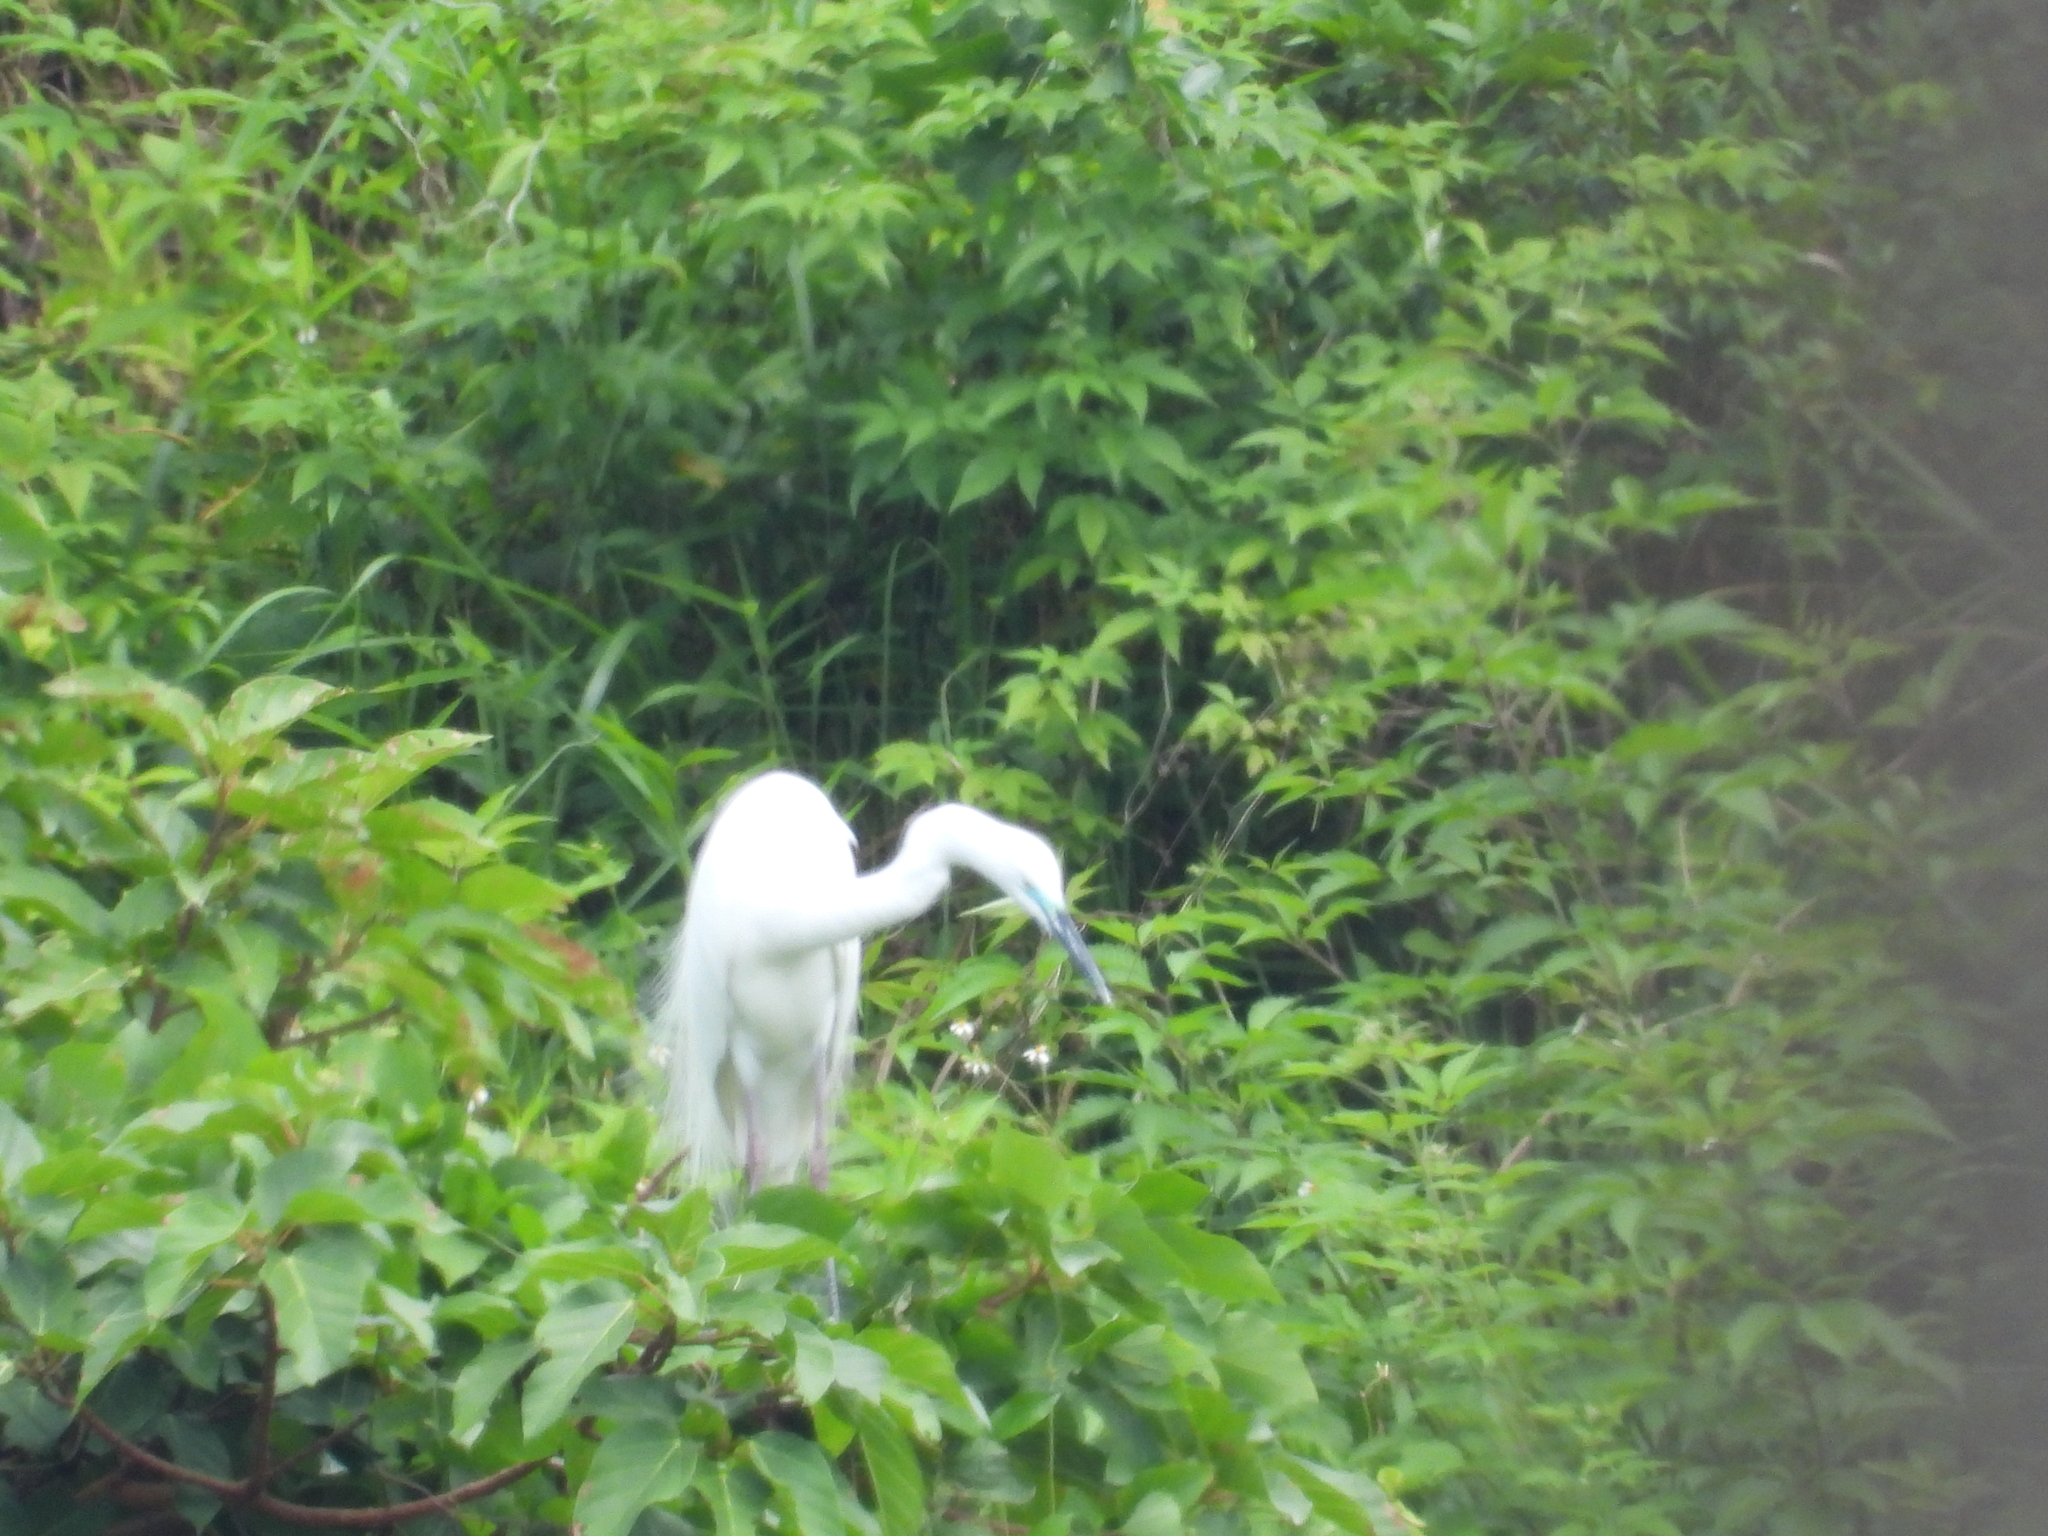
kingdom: Animalia
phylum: Chordata
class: Aves
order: Pelecaniformes
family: Ardeidae
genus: Ardea
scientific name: Ardea alba
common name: Great egret
